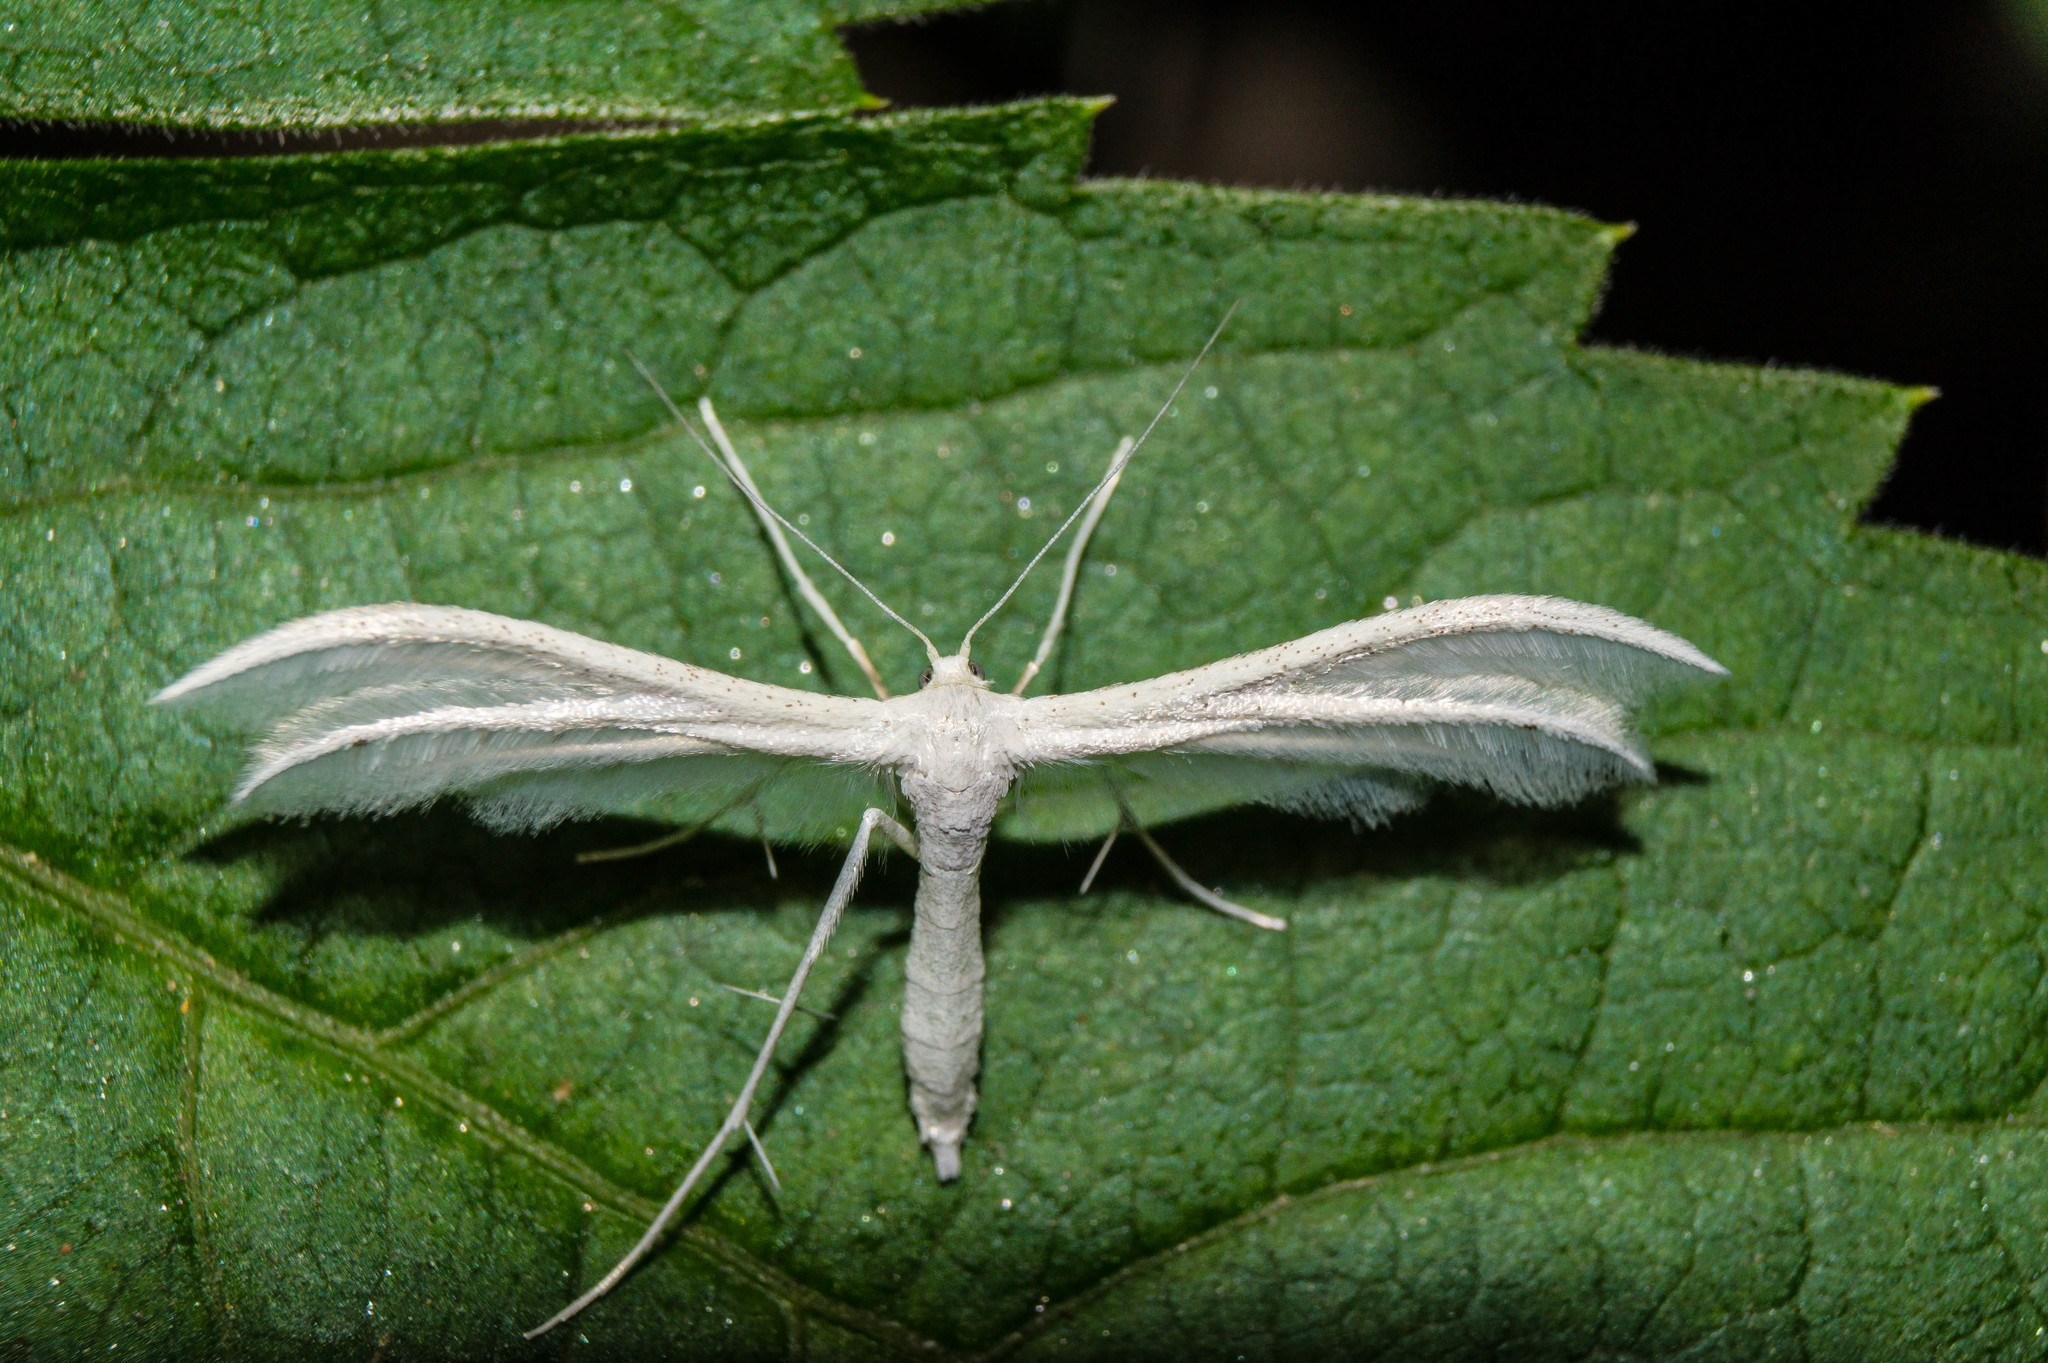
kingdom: Animalia
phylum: Arthropoda
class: Insecta
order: Lepidoptera
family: Pterophoridae
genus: Pterophorus
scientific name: Pterophorus pentadactyla
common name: White plume moth
